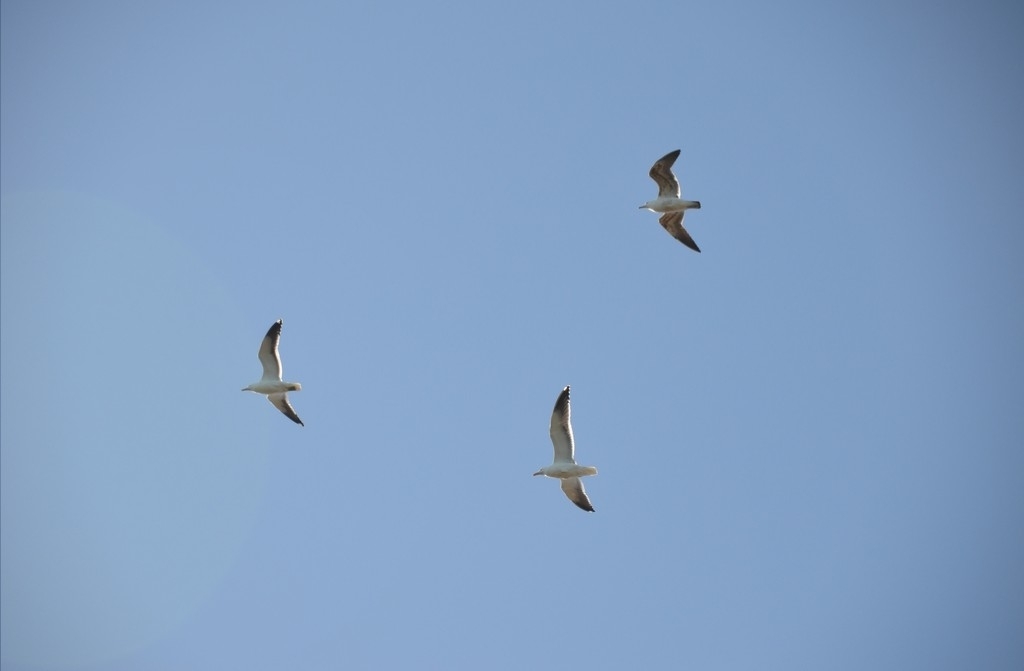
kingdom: Animalia
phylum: Chordata
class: Aves
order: Charadriiformes
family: Laridae
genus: Larus
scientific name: Larus dominicanus
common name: Kelp gull
